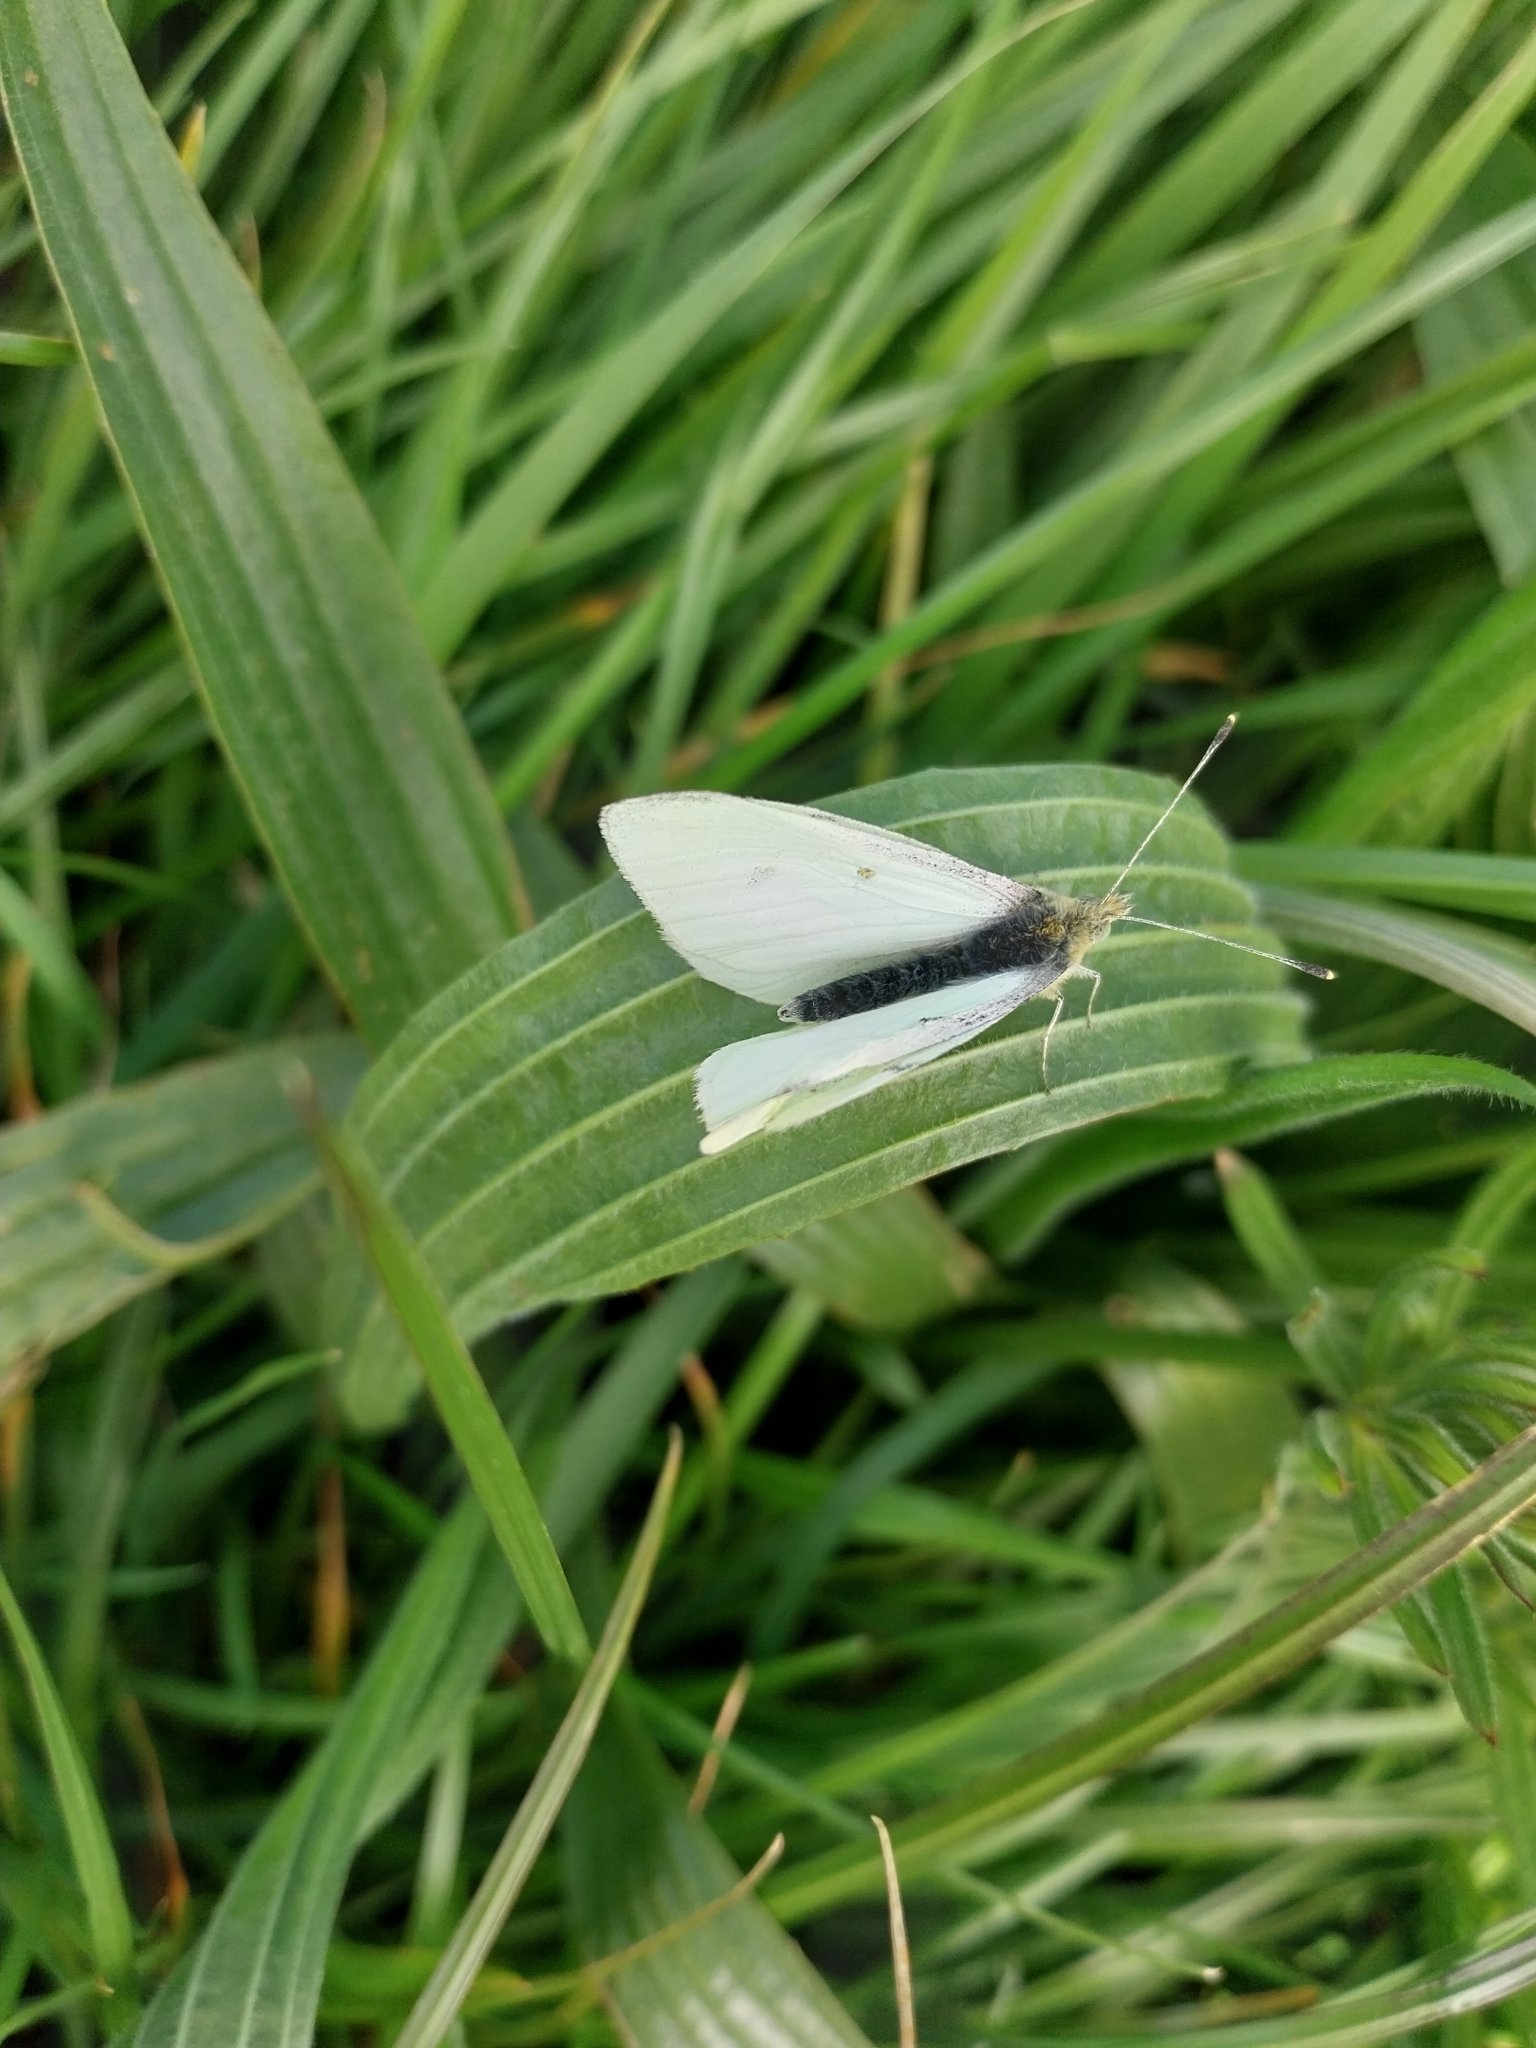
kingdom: Animalia
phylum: Arthropoda
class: Insecta
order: Lepidoptera
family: Pieridae
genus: Pieris
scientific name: Pieris rapae
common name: Small white
